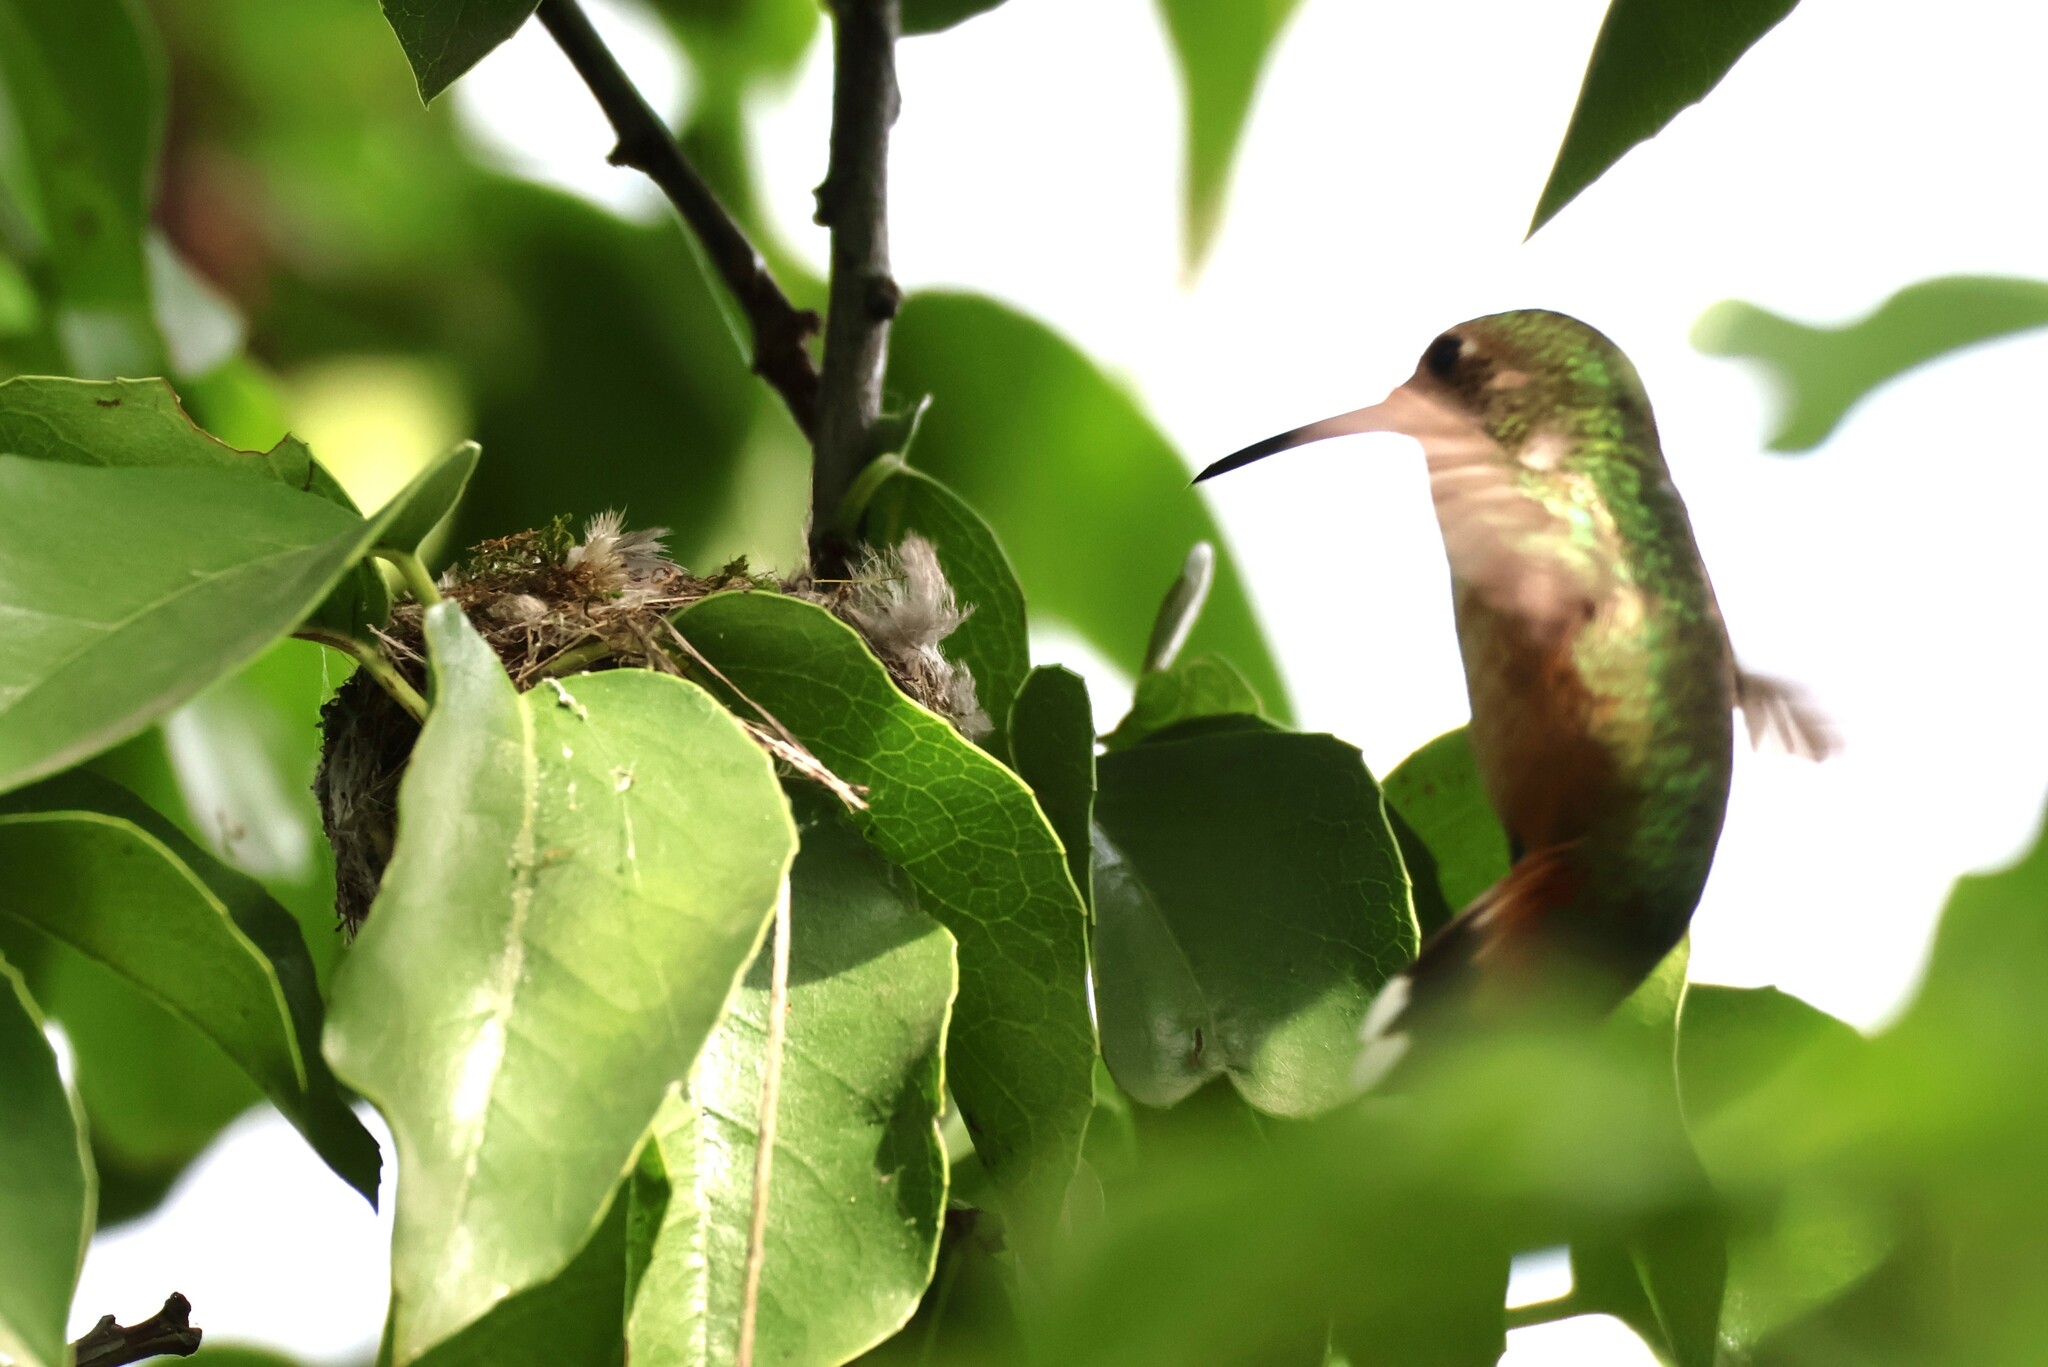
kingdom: Animalia
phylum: Chordata
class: Aves
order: Apodiformes
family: Trochilidae
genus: Selasphorus
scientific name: Selasphorus sasin
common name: Allen's hummingbird
